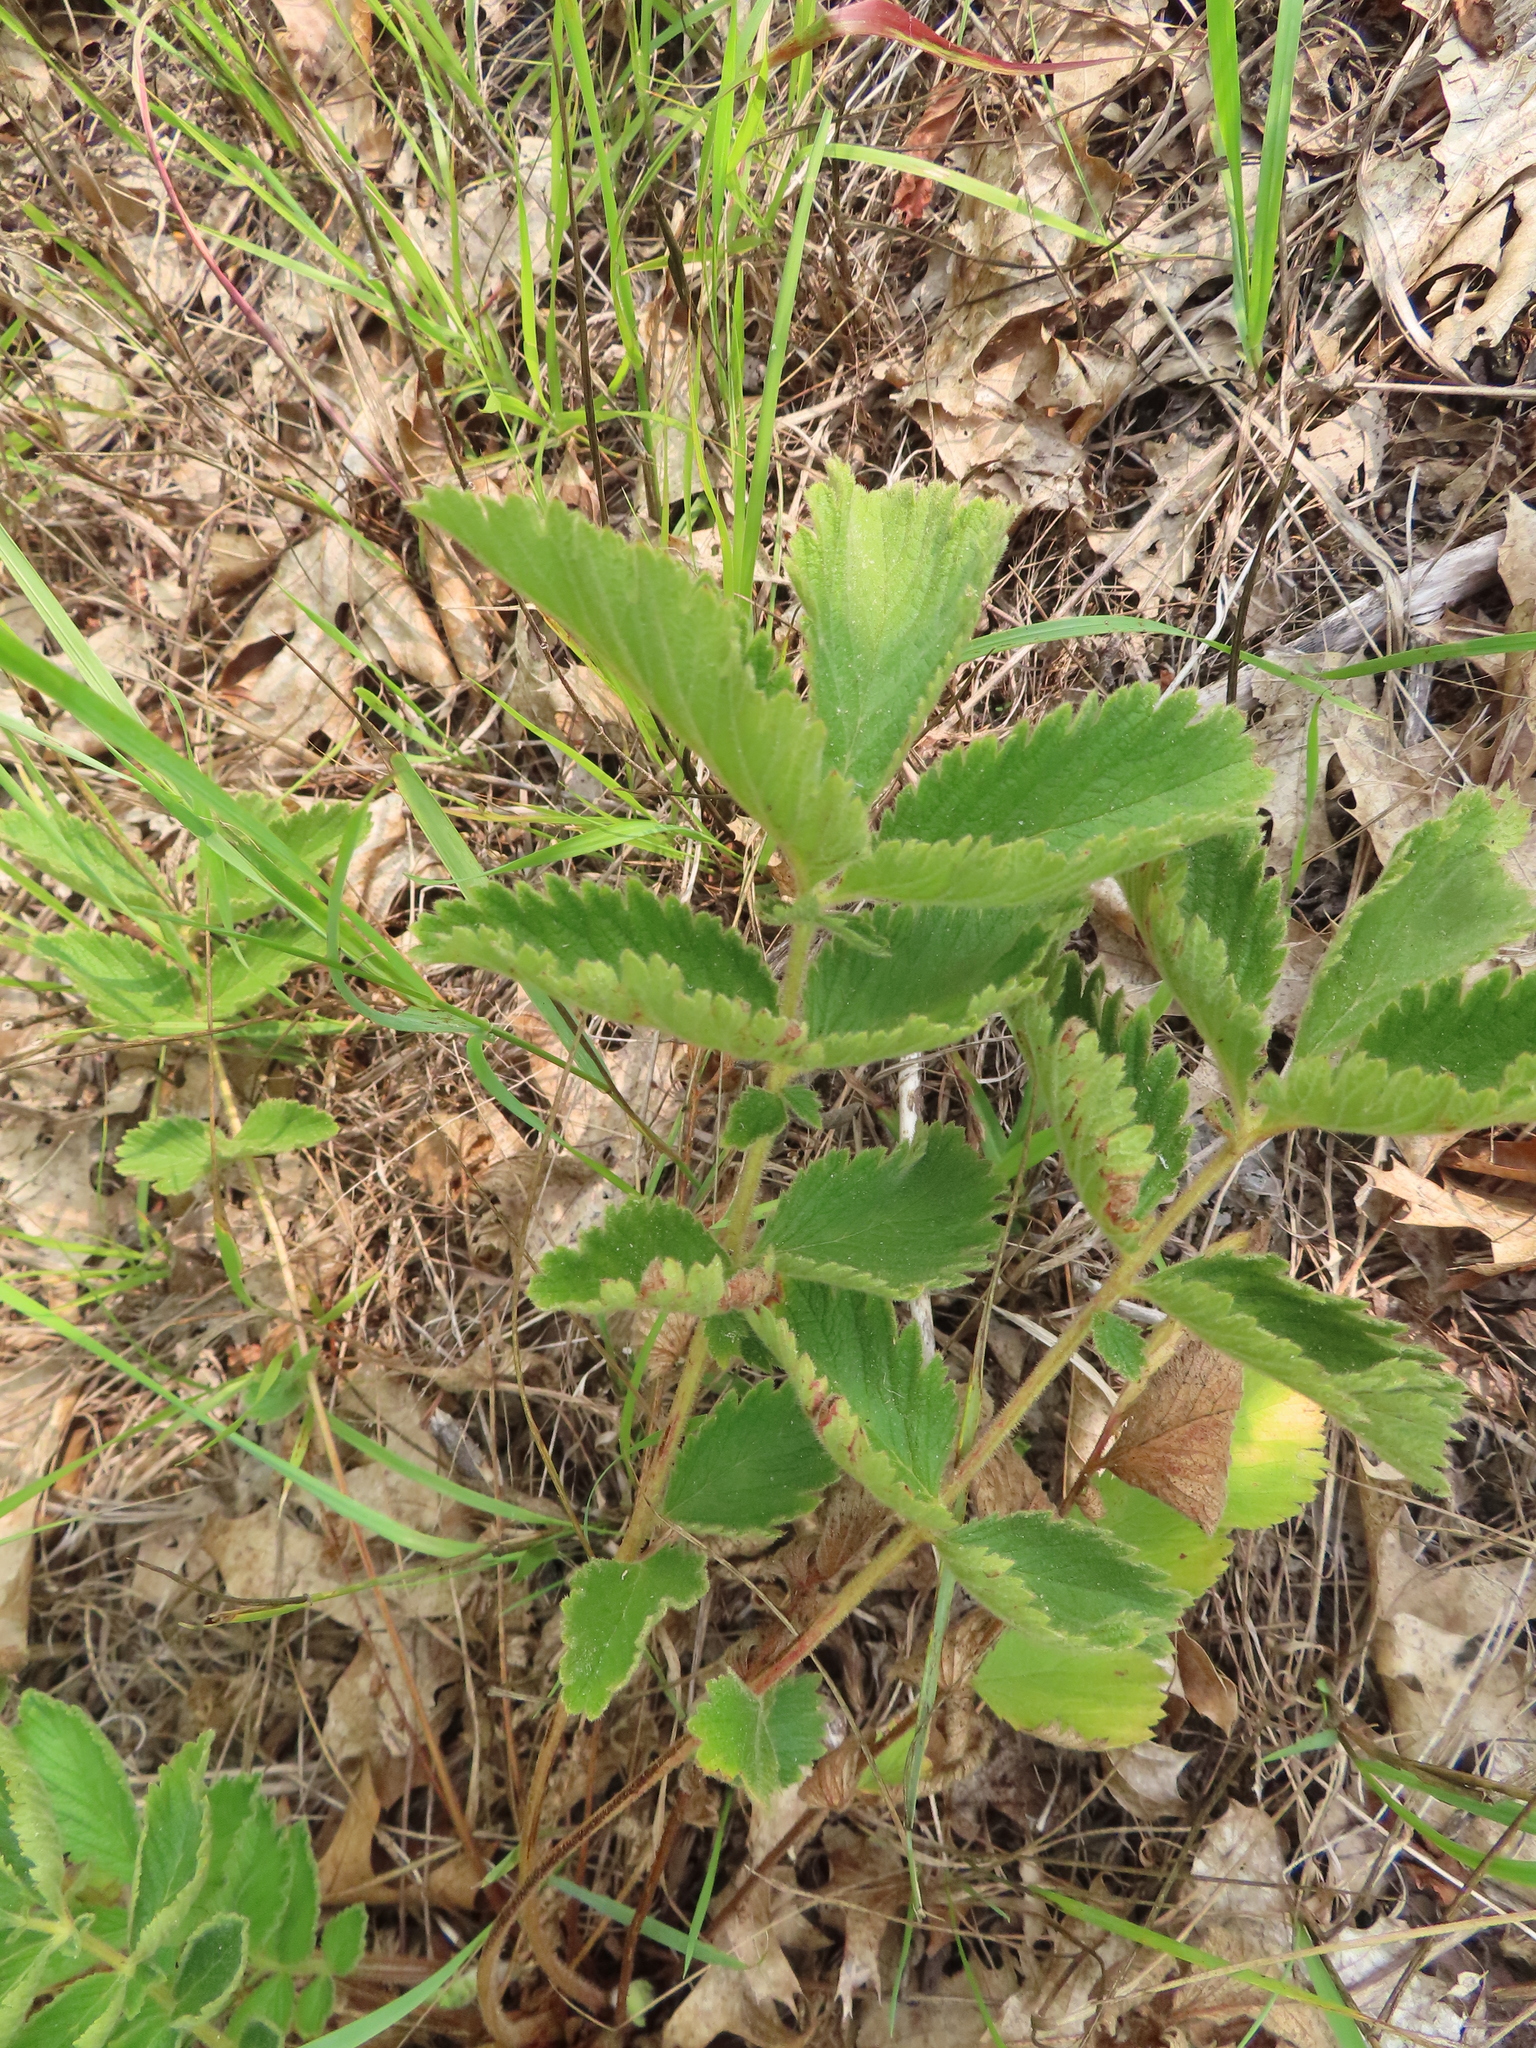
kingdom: Plantae
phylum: Tracheophyta
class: Magnoliopsida
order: Rosales
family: Rosaceae
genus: Drymocallis
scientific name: Drymocallis arguta
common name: Tall cinquefoil
